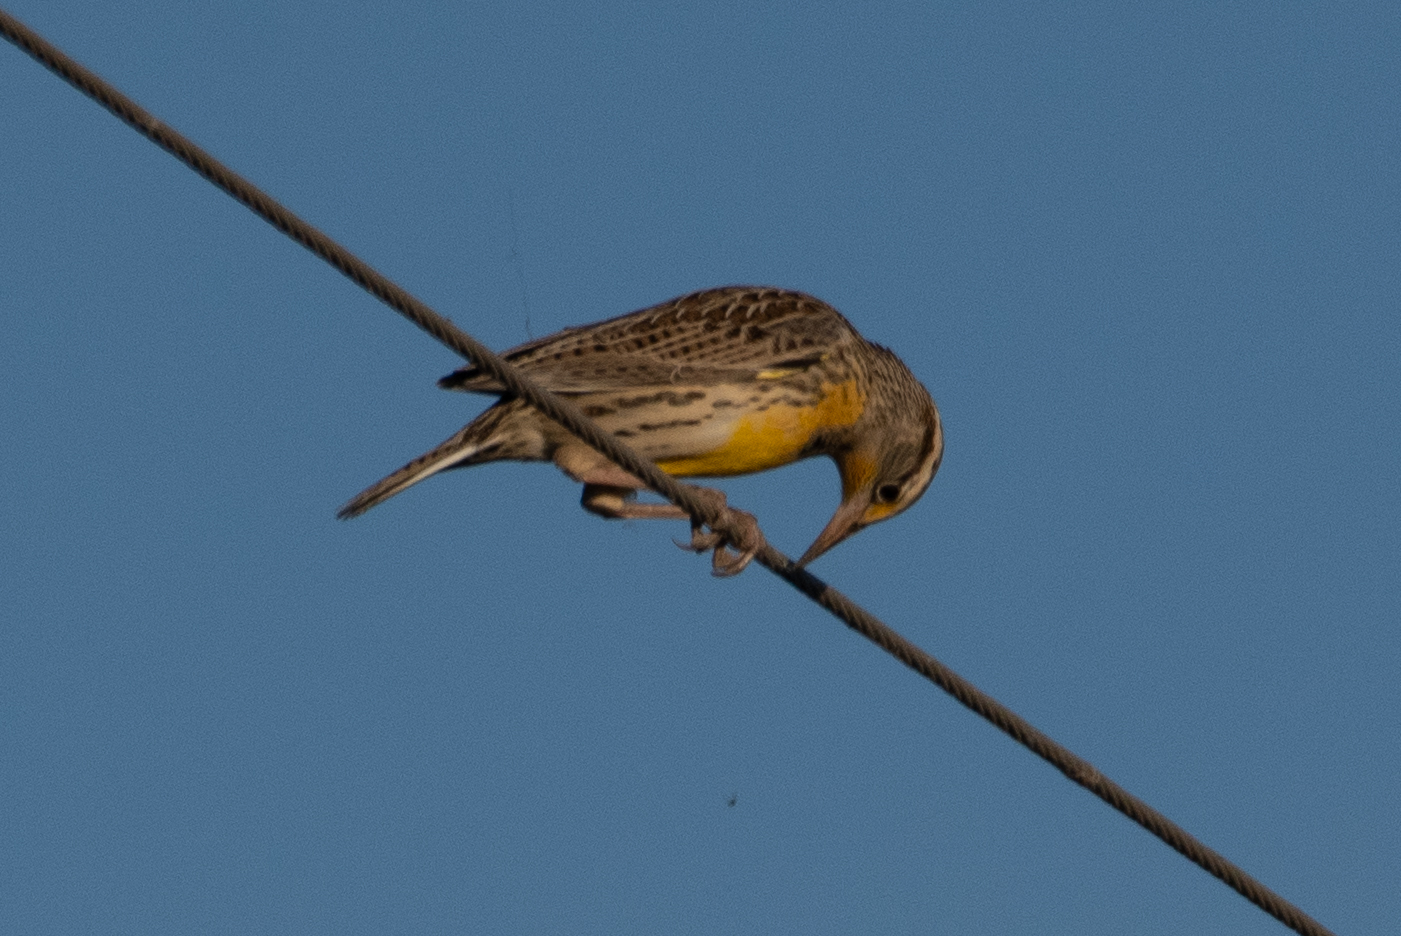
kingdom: Animalia
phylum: Chordata
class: Aves
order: Passeriformes
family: Icteridae
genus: Sturnella
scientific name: Sturnella neglecta
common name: Western meadowlark
